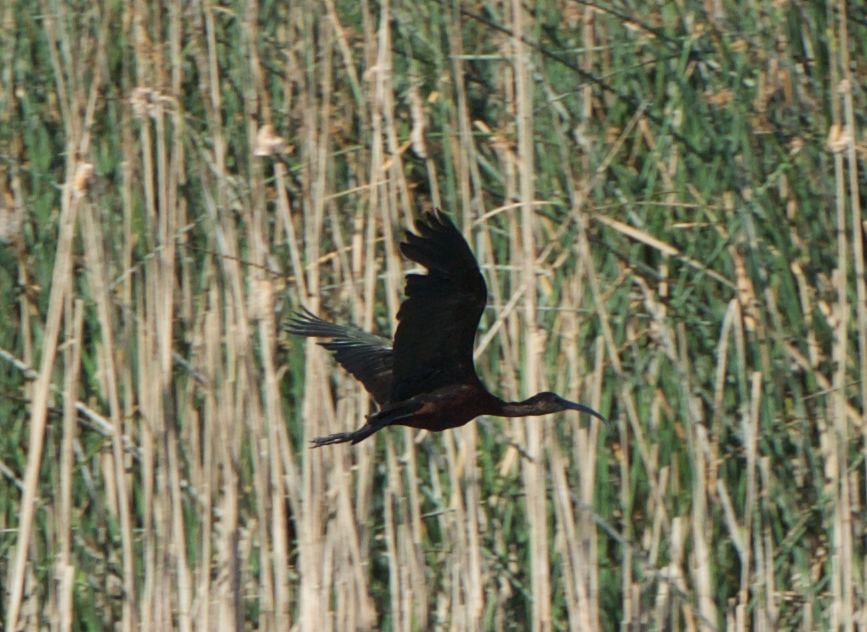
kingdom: Animalia
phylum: Chordata
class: Aves
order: Pelecaniformes
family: Threskiornithidae
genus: Plegadis
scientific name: Plegadis chihi
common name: White-faced ibis
